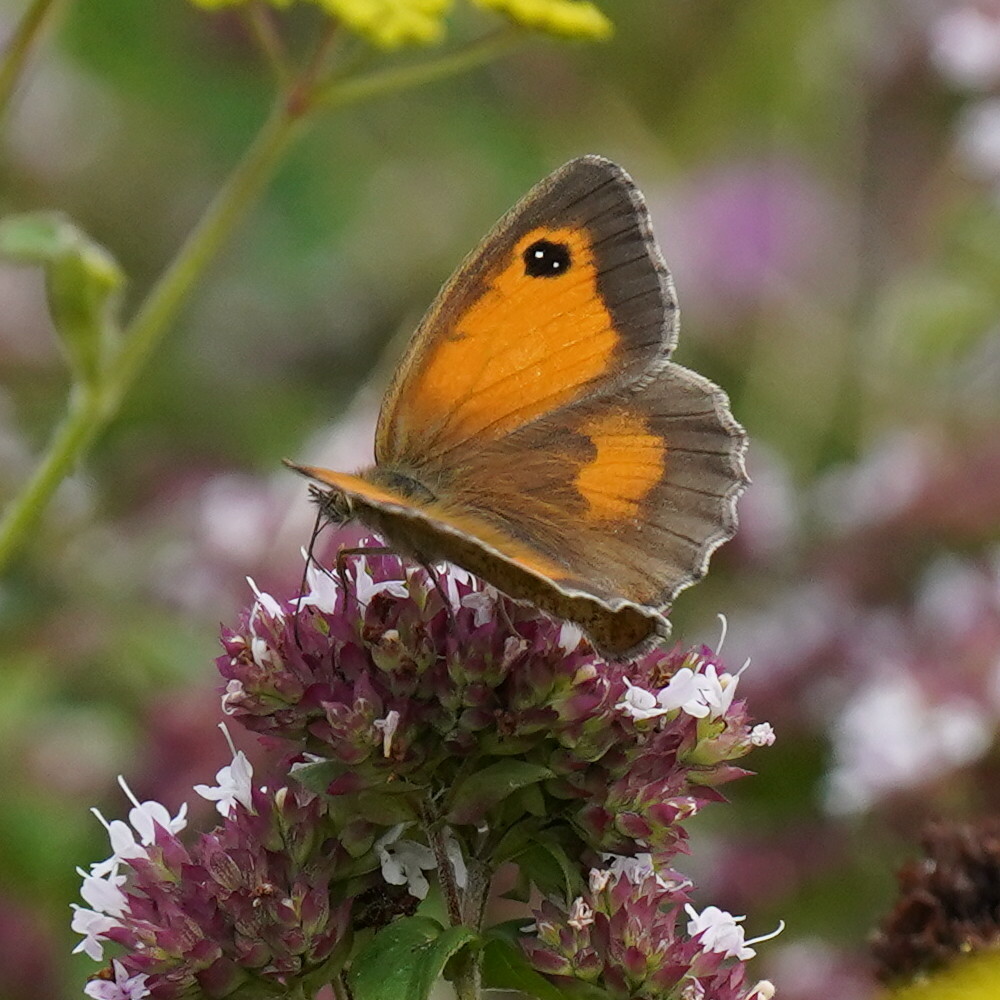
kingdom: Animalia
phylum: Arthropoda
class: Insecta
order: Lepidoptera
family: Nymphalidae
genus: Pyronia
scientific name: Pyronia tithonus
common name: Gatekeeper
